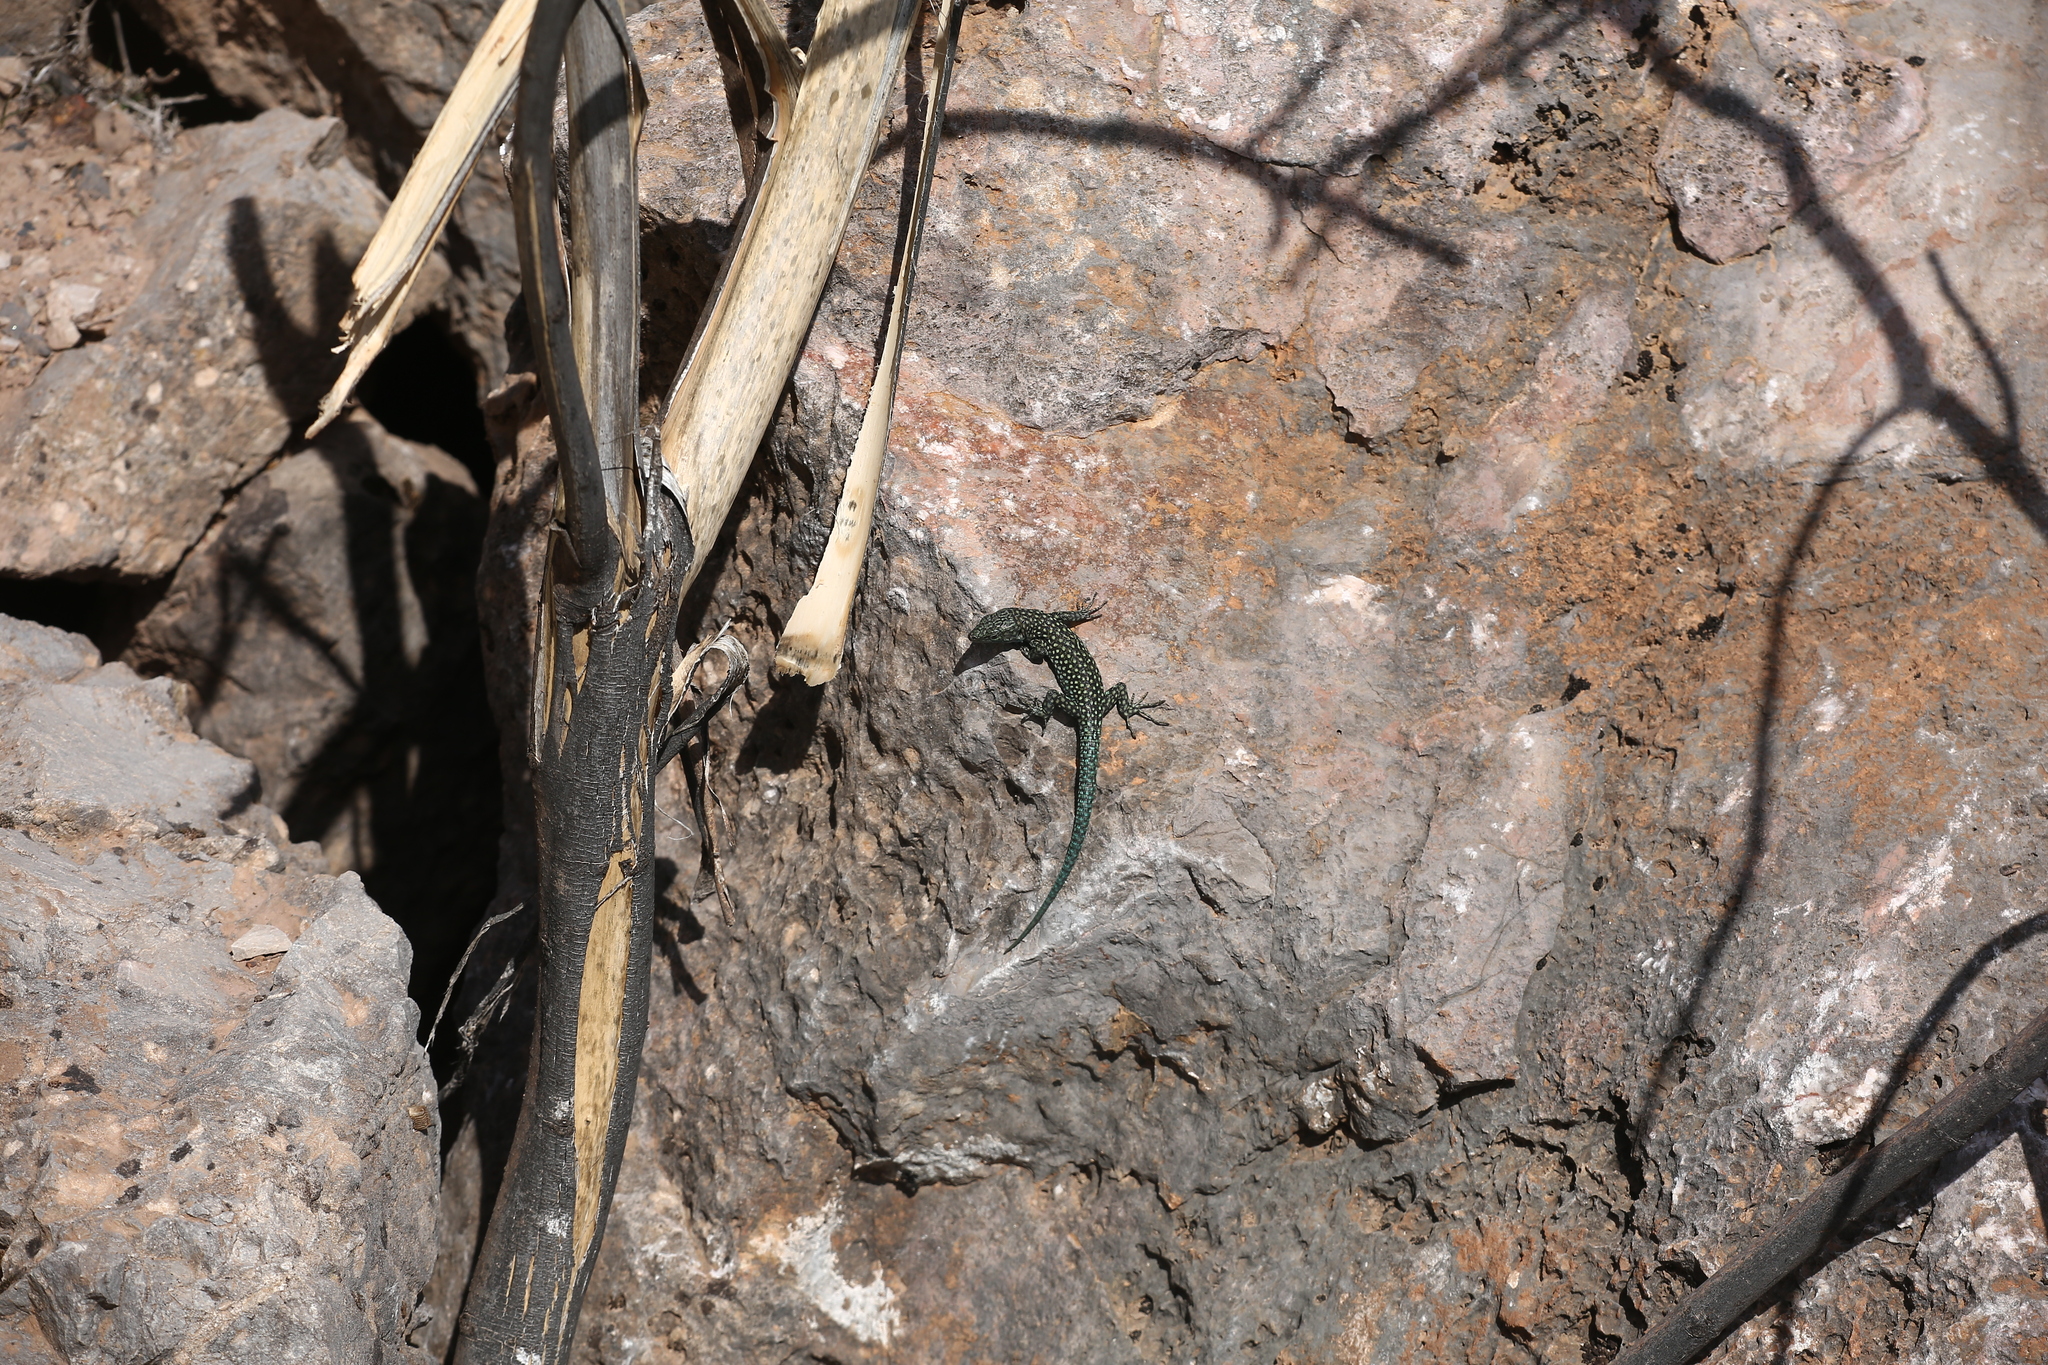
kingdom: Animalia
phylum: Chordata
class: Squamata
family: Lacertidae
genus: Scelarcis
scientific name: Scelarcis perspicillata
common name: Moroccan rock lizard
